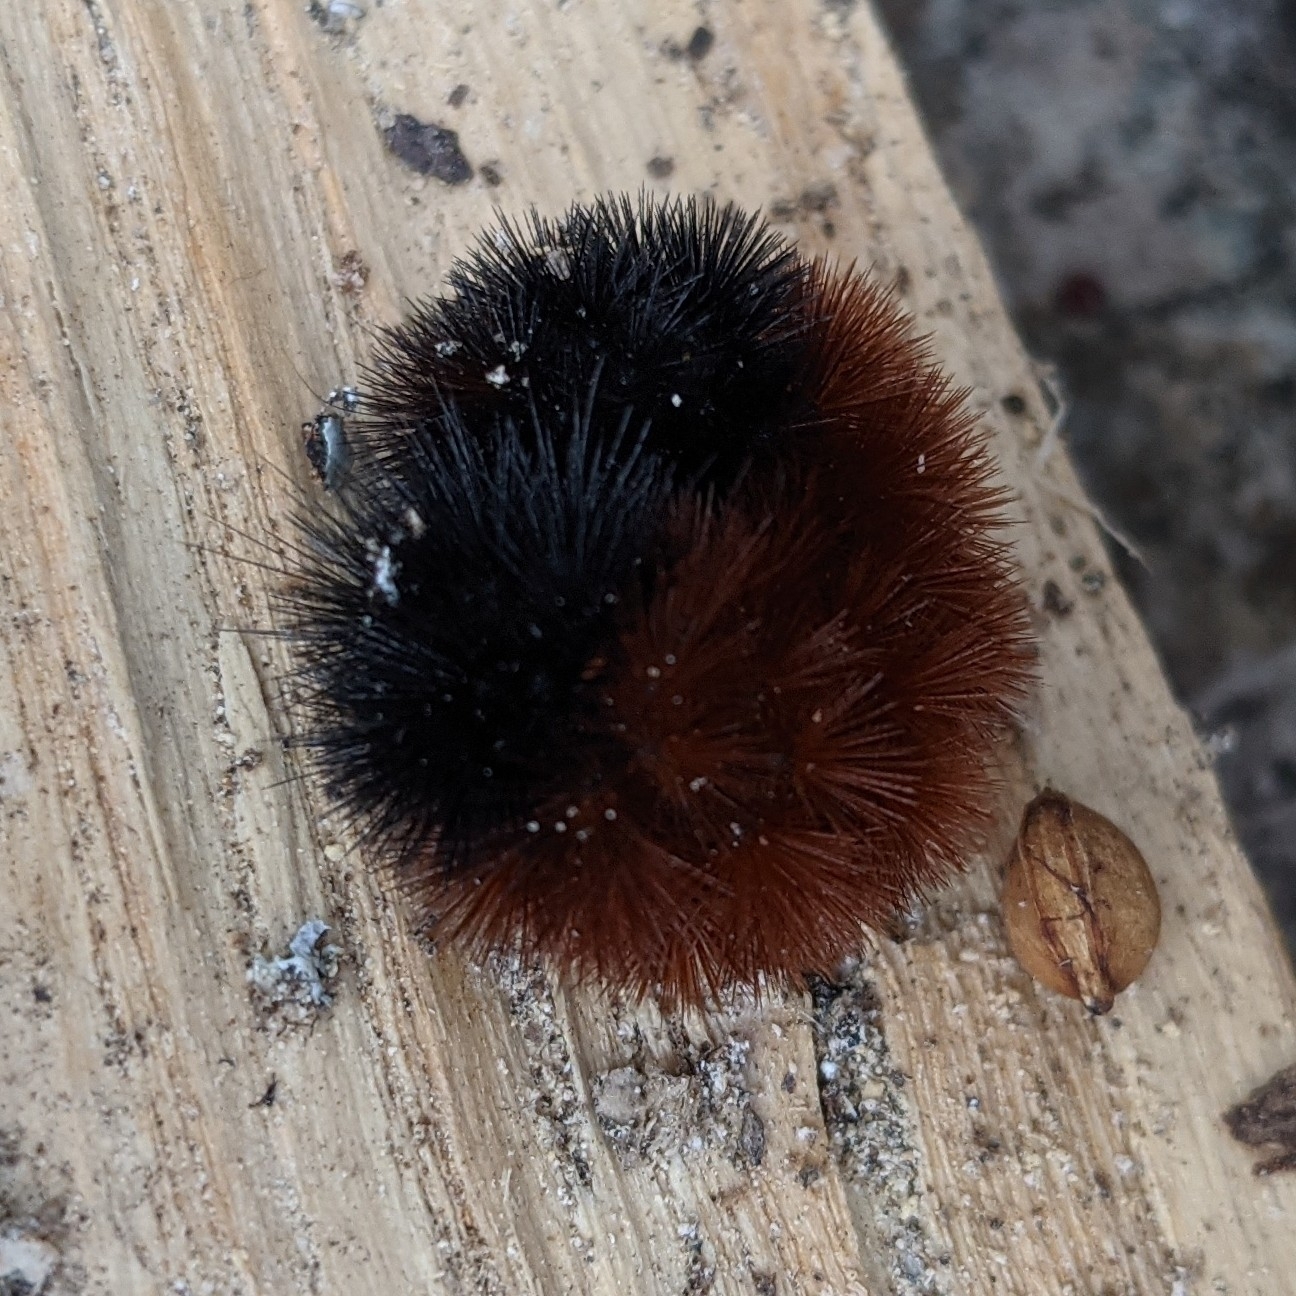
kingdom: Animalia
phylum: Arthropoda
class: Insecta
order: Lepidoptera
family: Erebidae
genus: Pyrrharctia
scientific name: Pyrrharctia isabella
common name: Isabella tiger moth
